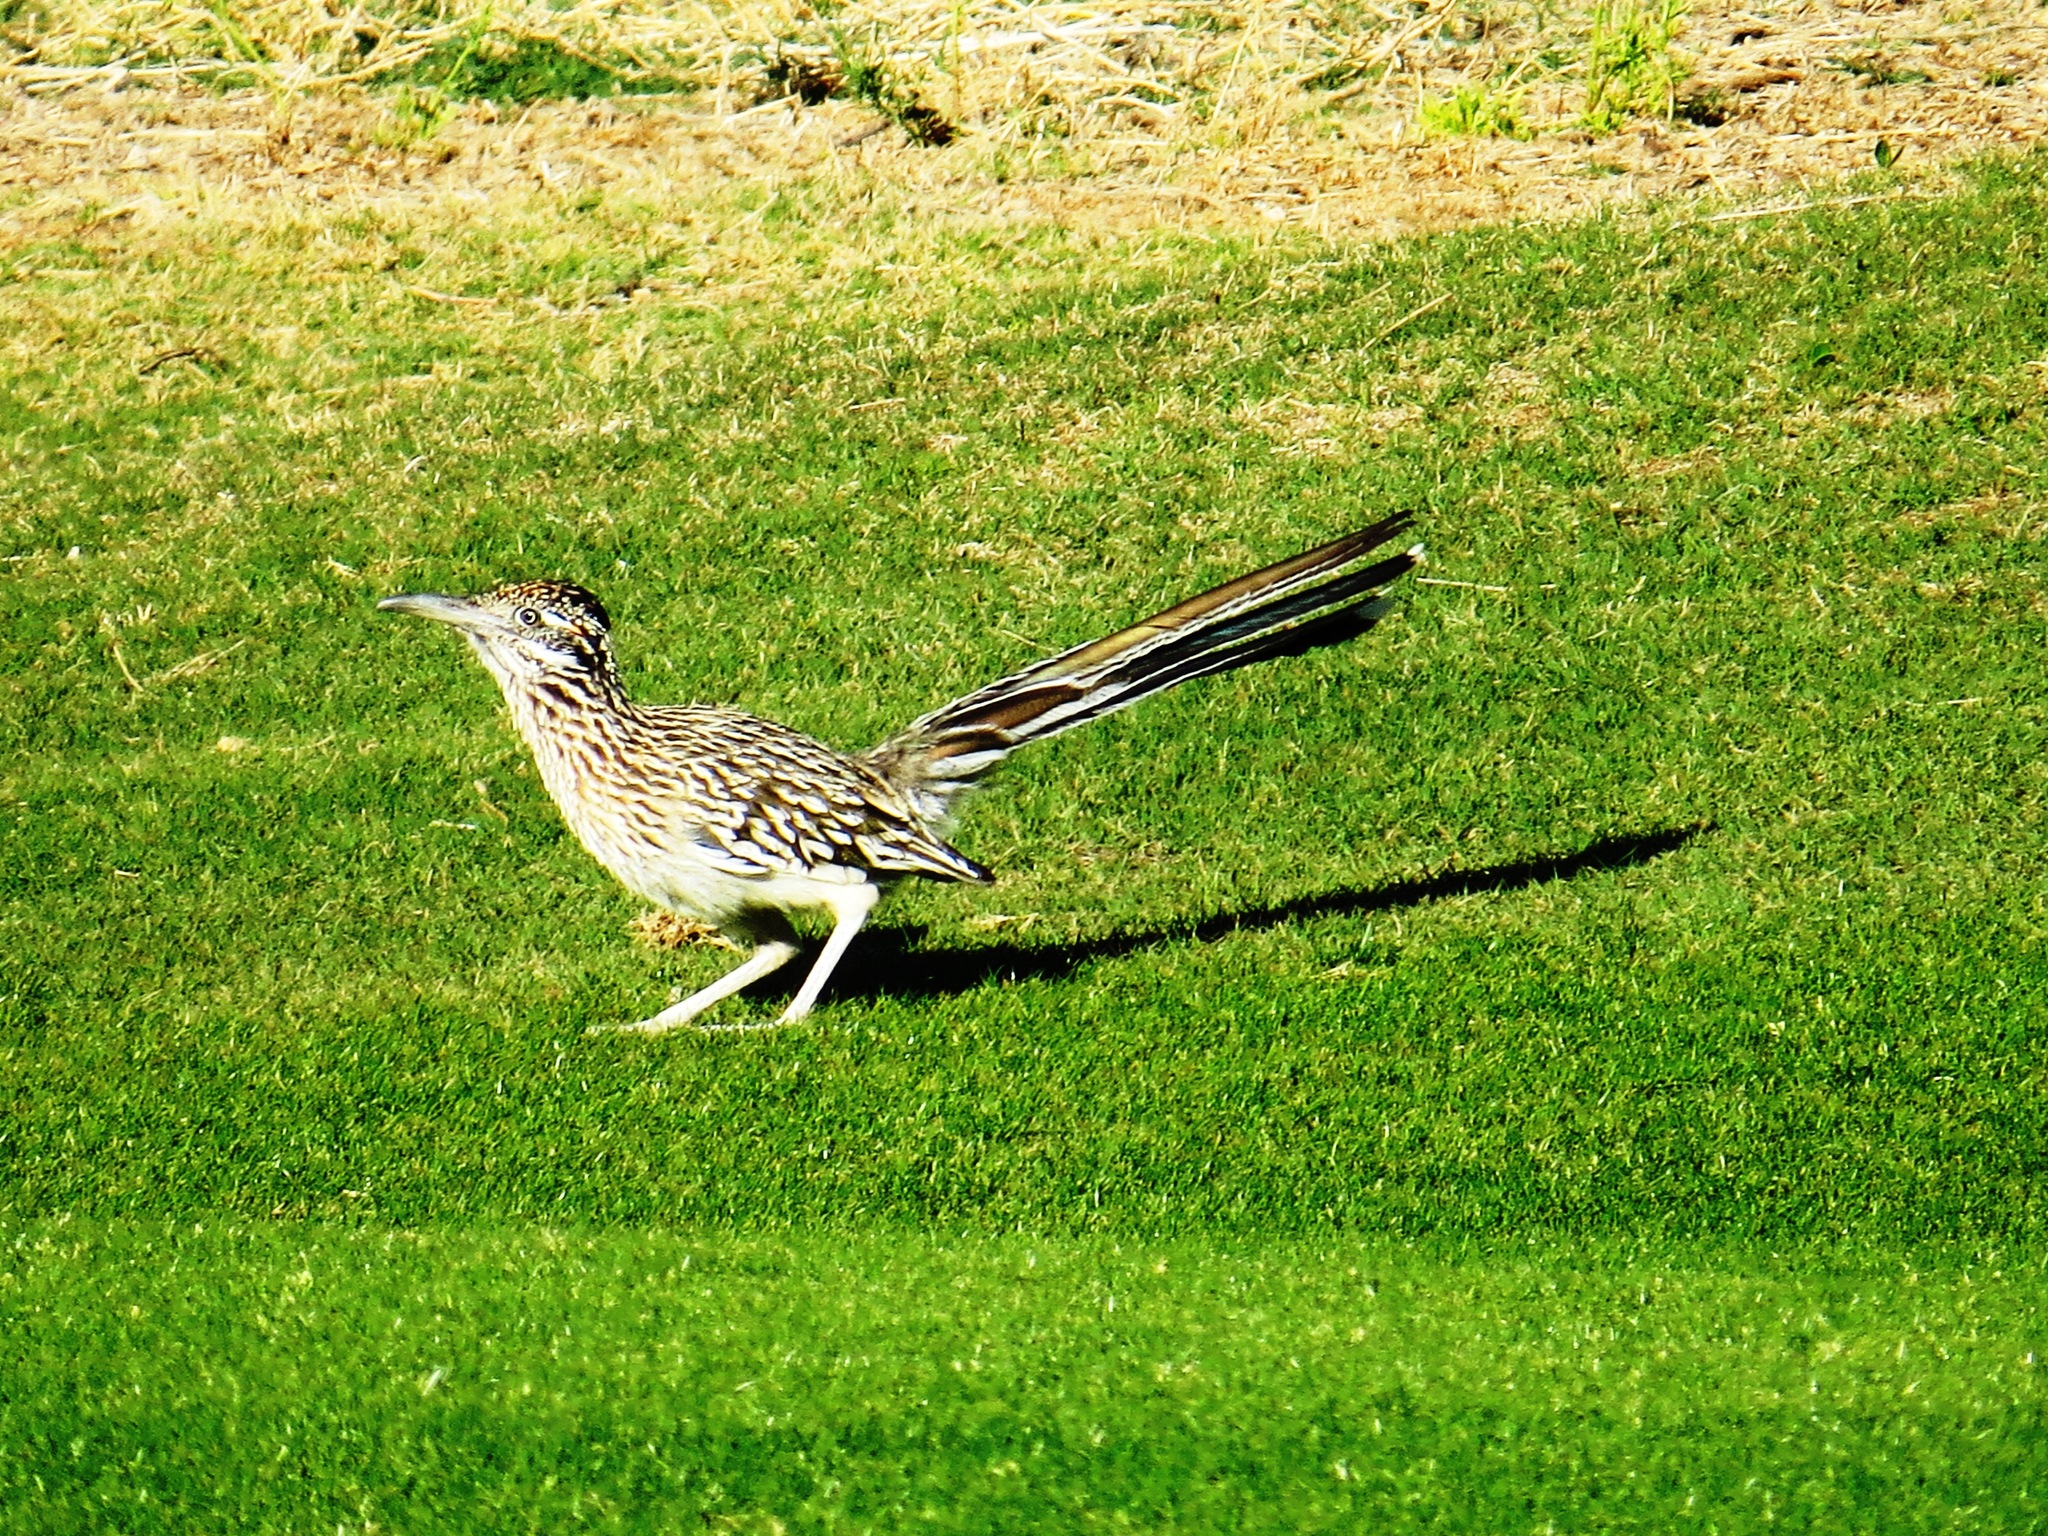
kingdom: Animalia
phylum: Chordata
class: Aves
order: Cuculiformes
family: Cuculidae
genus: Geococcyx
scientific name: Geococcyx californianus
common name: Greater roadrunner
